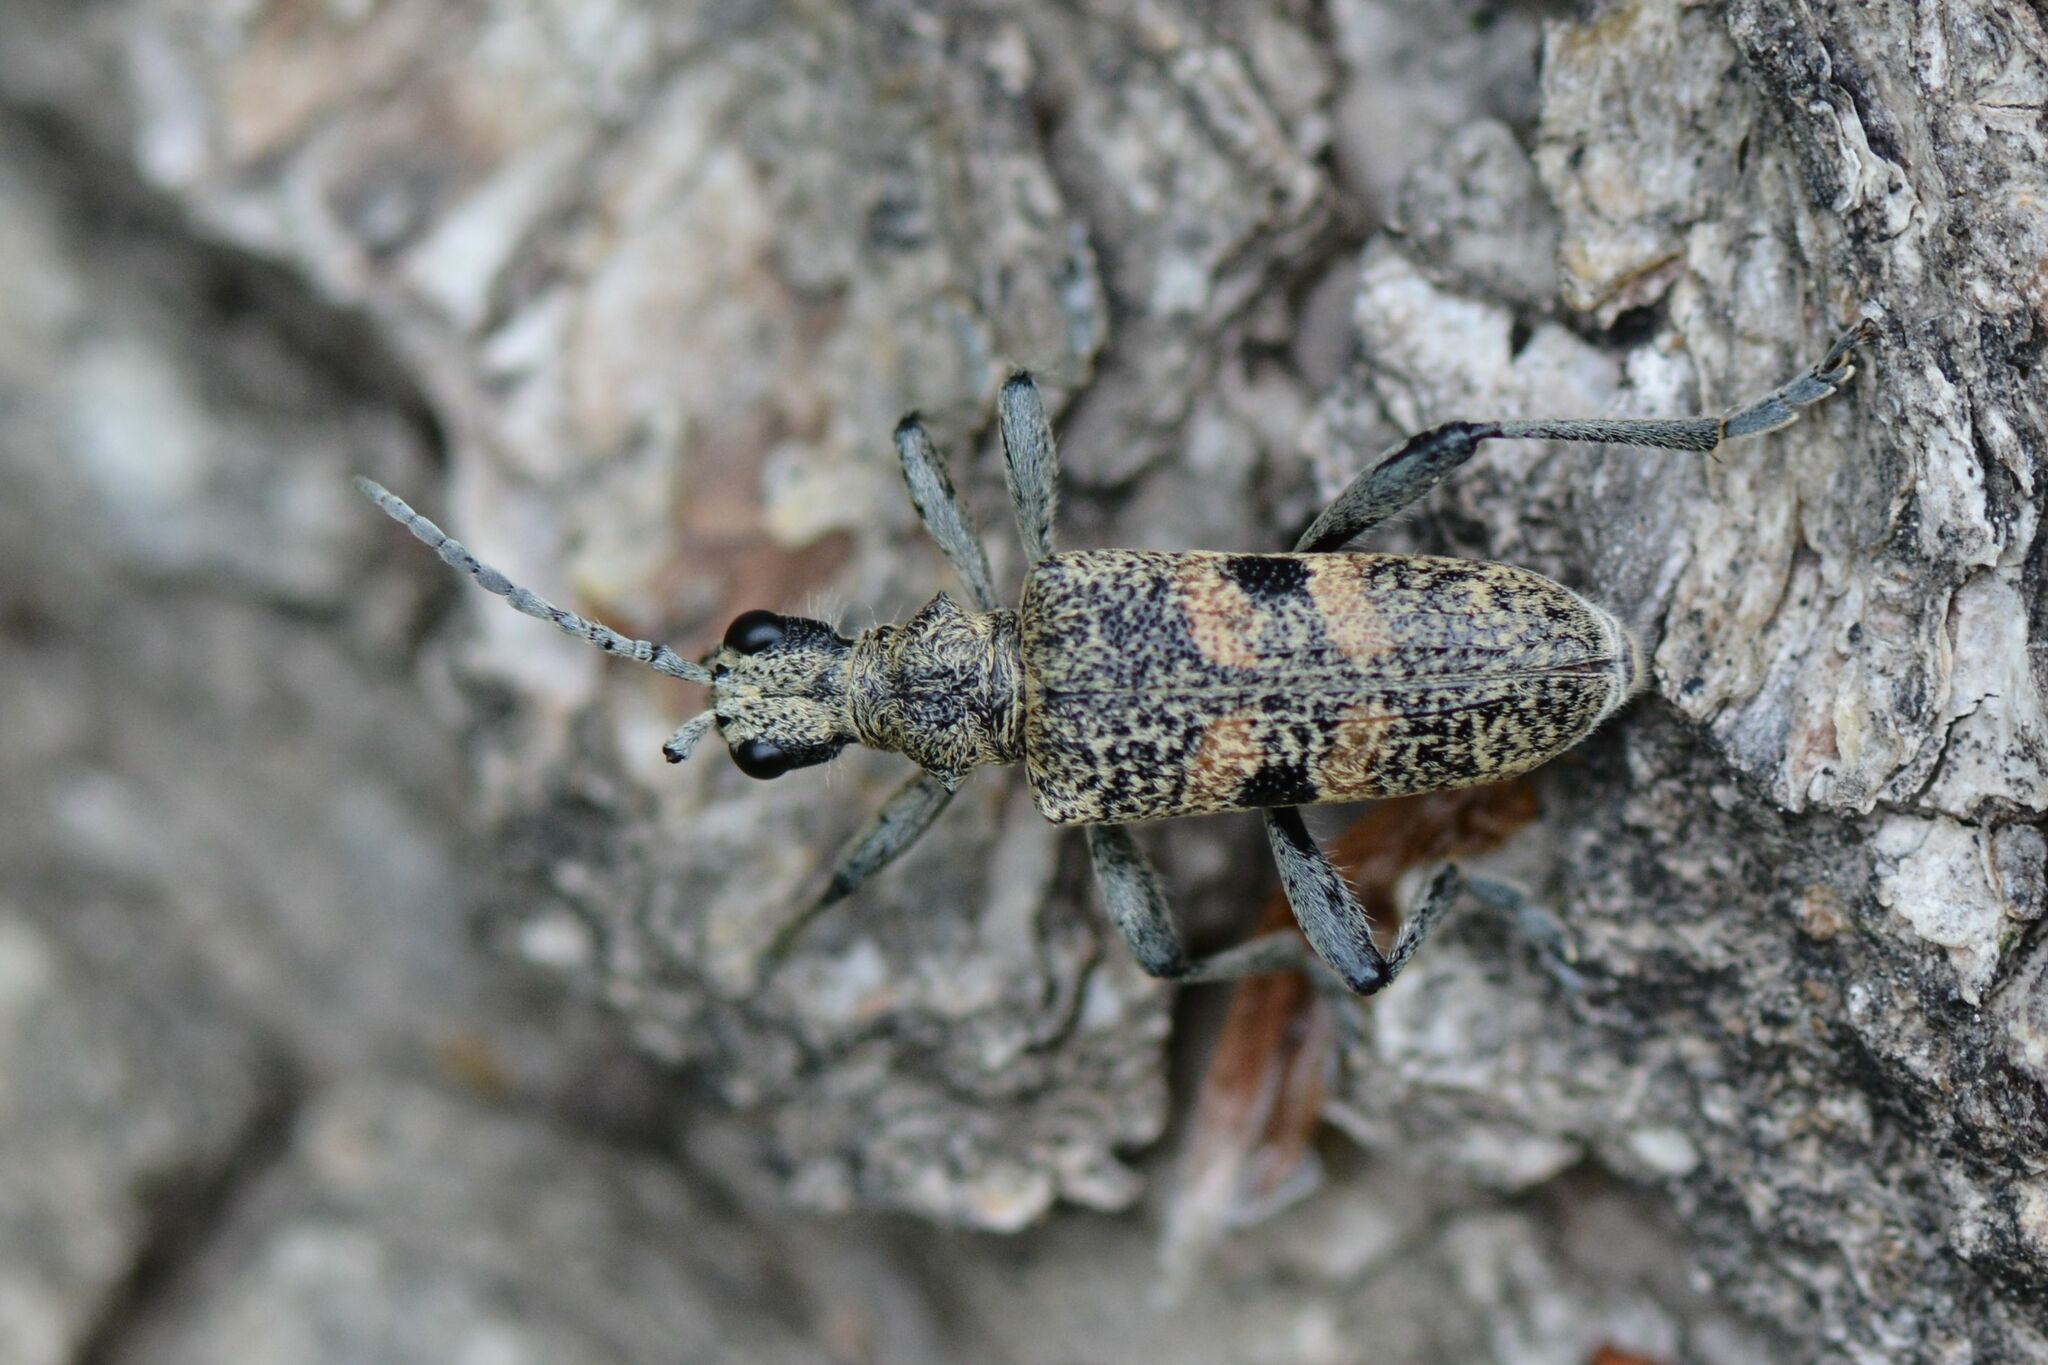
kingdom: Animalia
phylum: Arthropoda
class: Insecta
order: Coleoptera
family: Cerambycidae
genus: Rhagium
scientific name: Rhagium mordax
